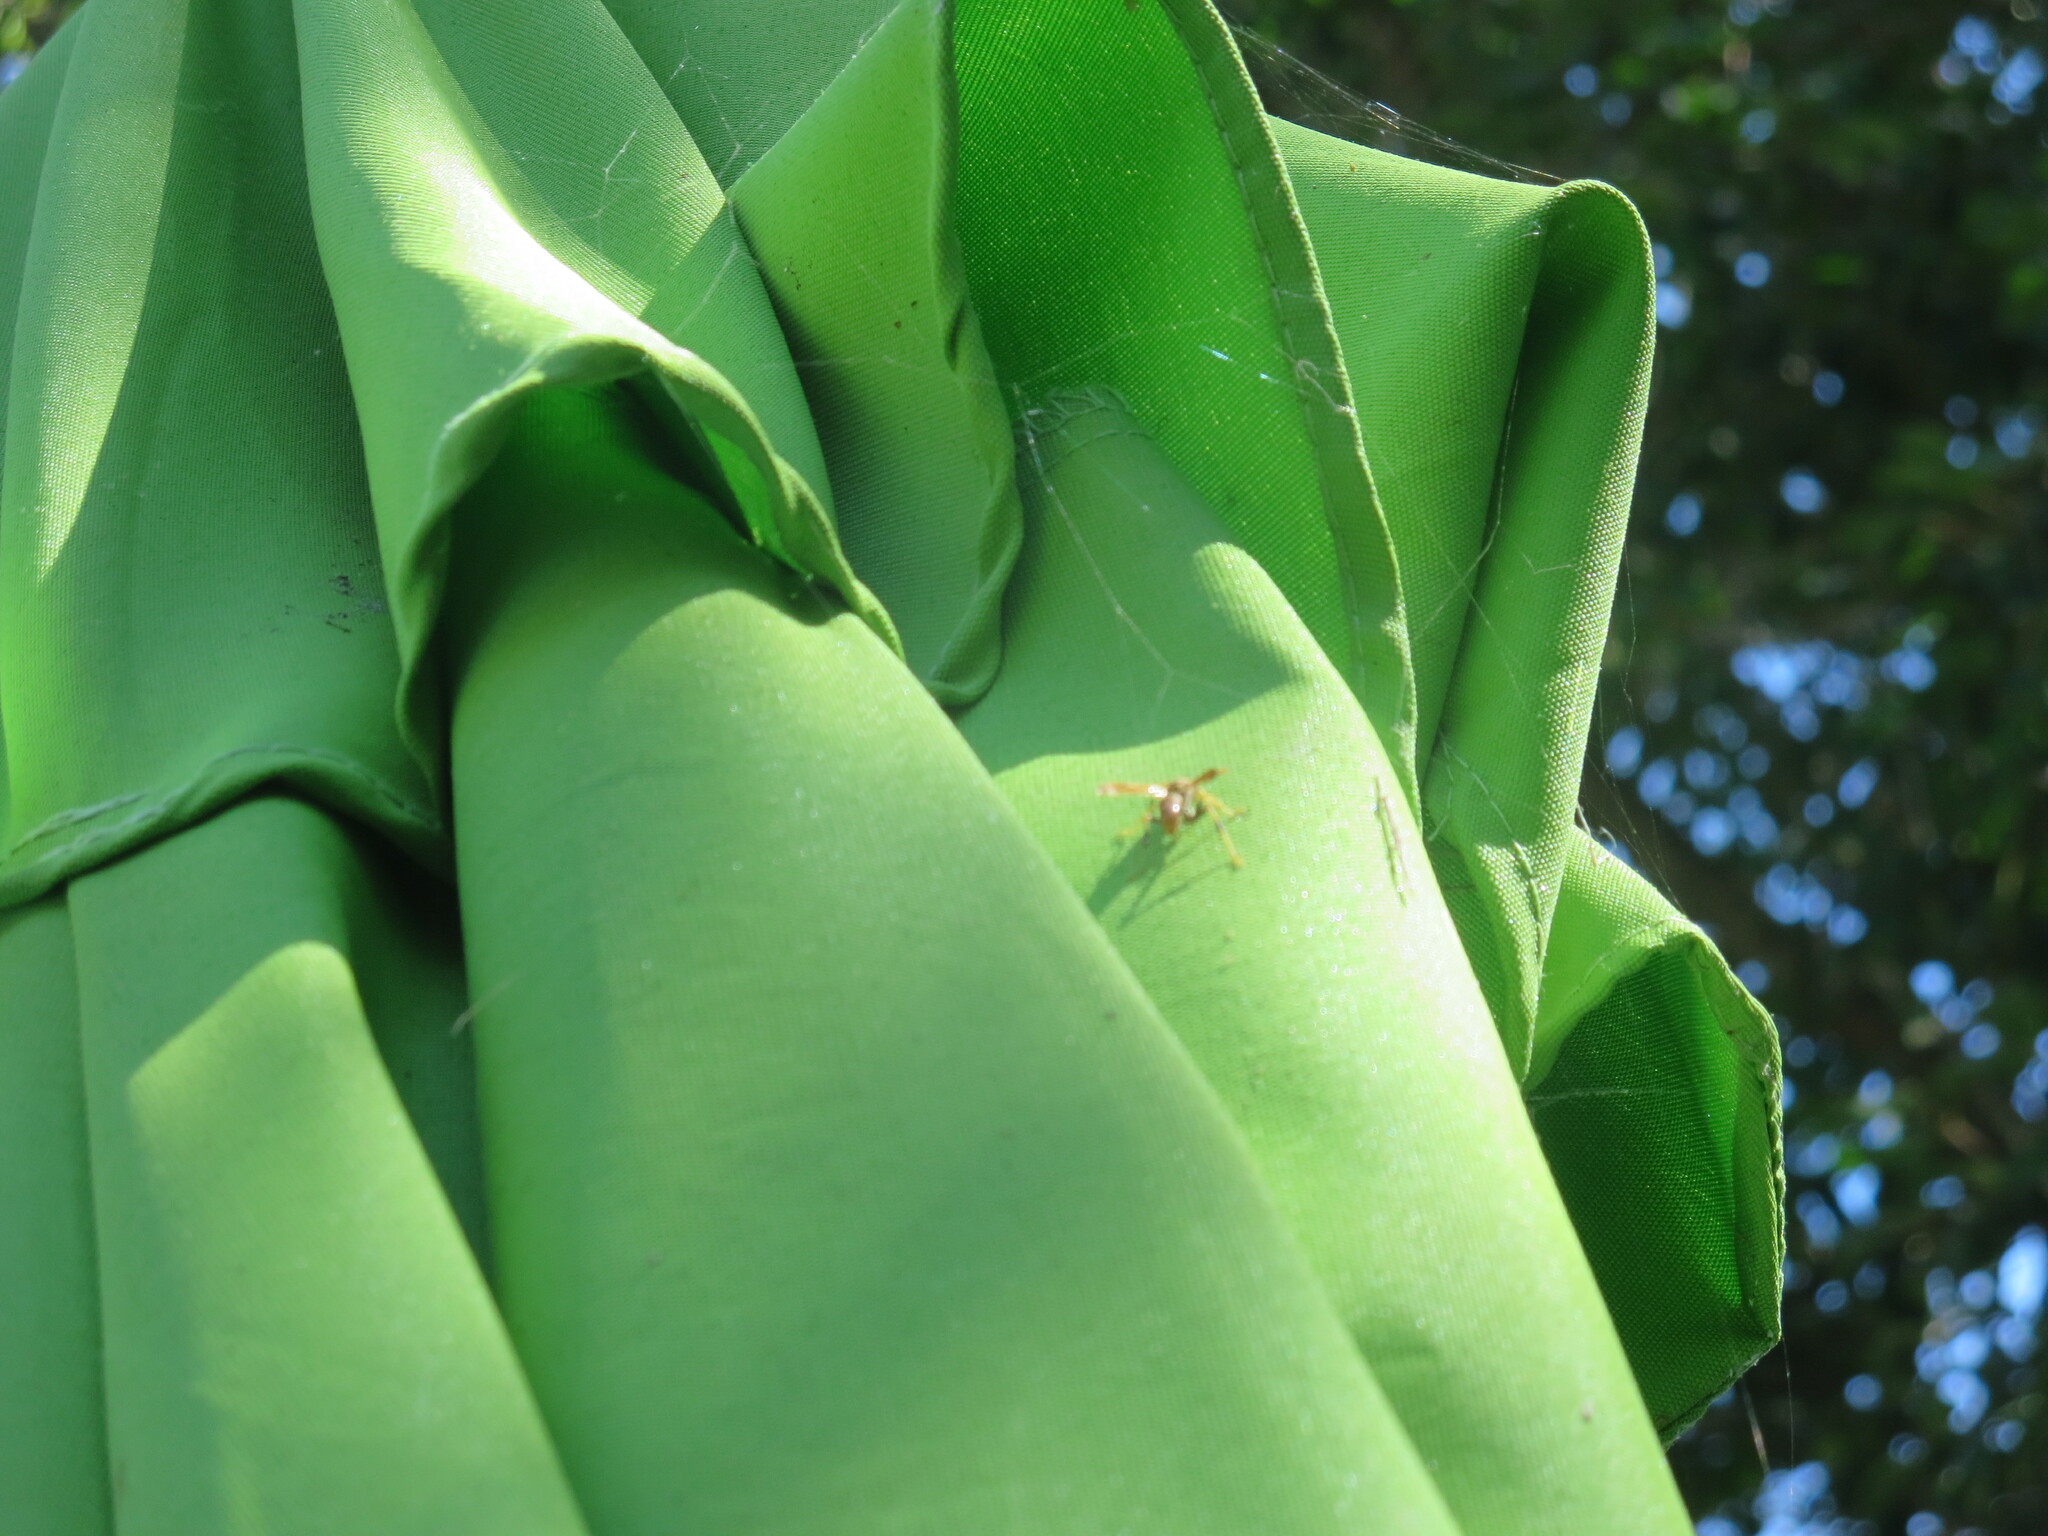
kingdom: Animalia
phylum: Arthropoda
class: Insecta
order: Hymenoptera
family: Eumenidae
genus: Polistes
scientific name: Polistes dorsalis
